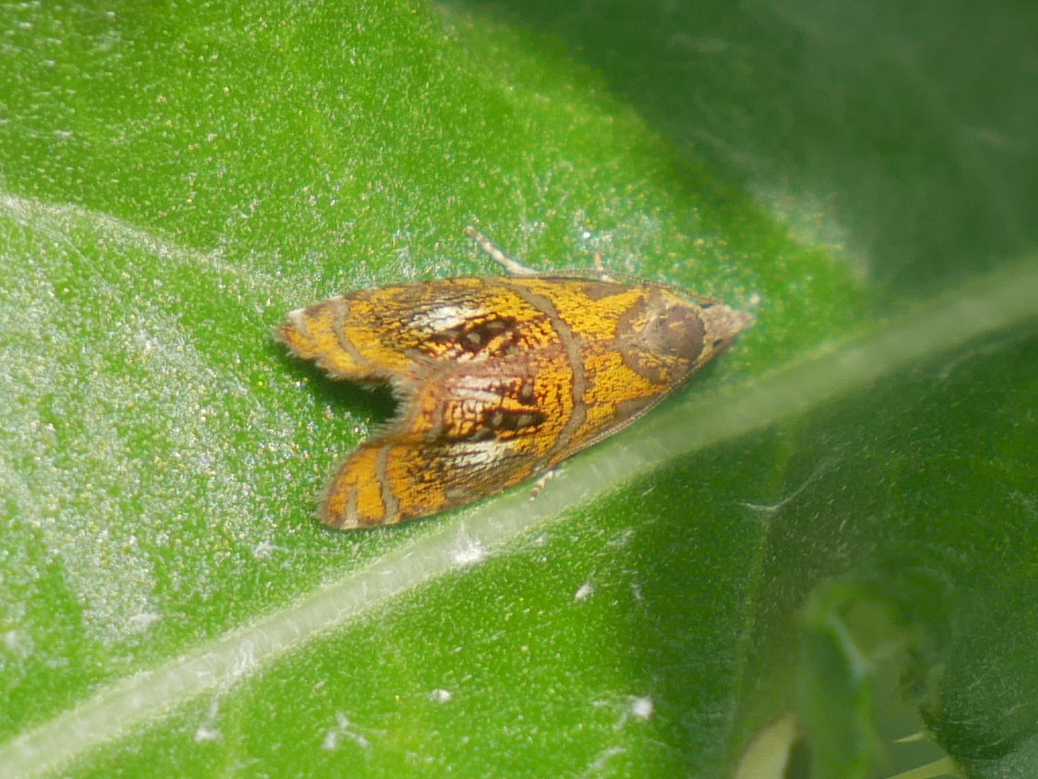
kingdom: Animalia
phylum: Arthropoda
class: Insecta
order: Lepidoptera
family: Tortricidae
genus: Olethreutes
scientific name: Olethreutes arcuella
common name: Arched marble
